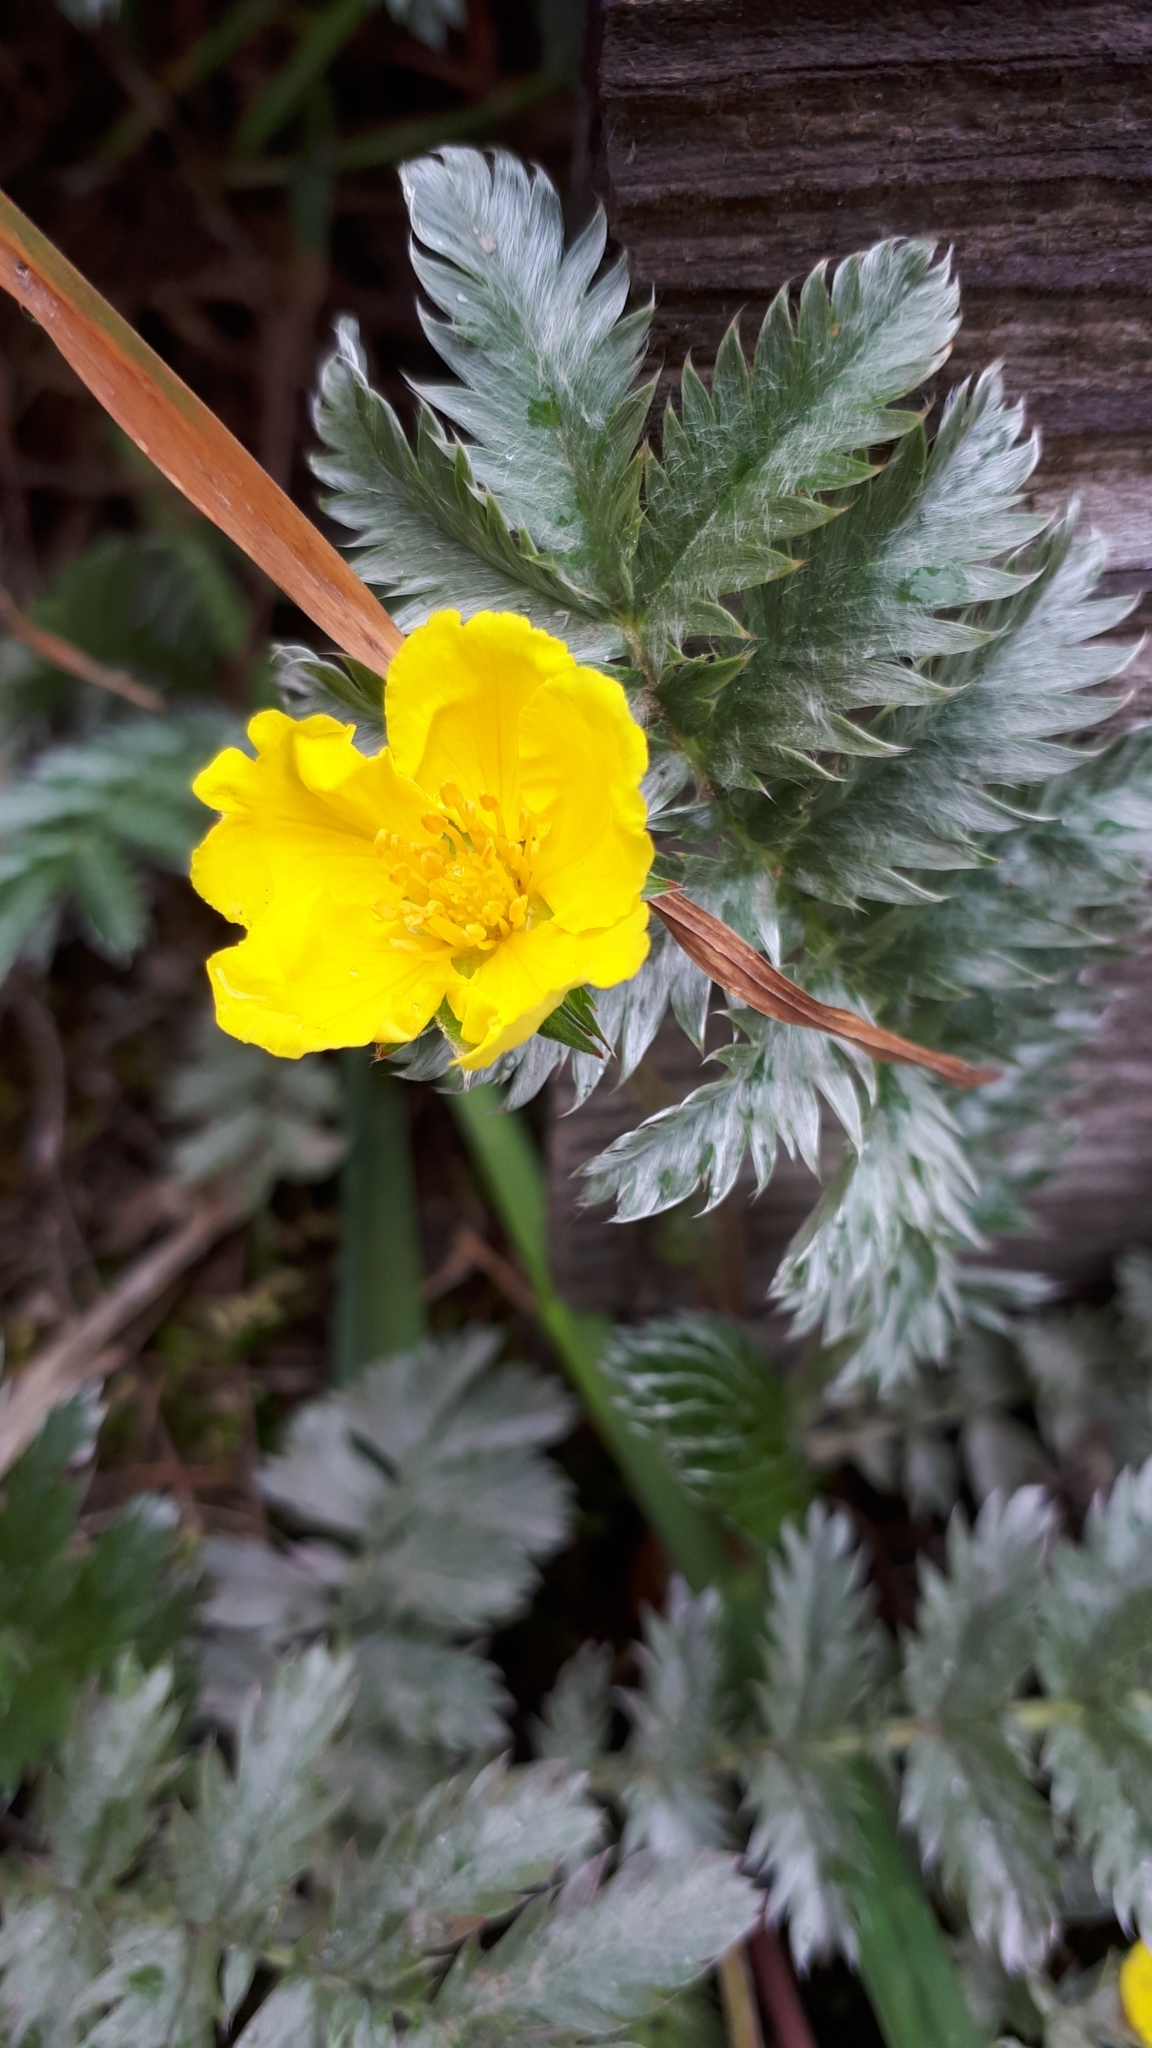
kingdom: Plantae
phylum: Tracheophyta
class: Magnoliopsida
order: Rosales
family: Rosaceae
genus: Argentina
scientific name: Argentina anserina
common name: Common silverweed
